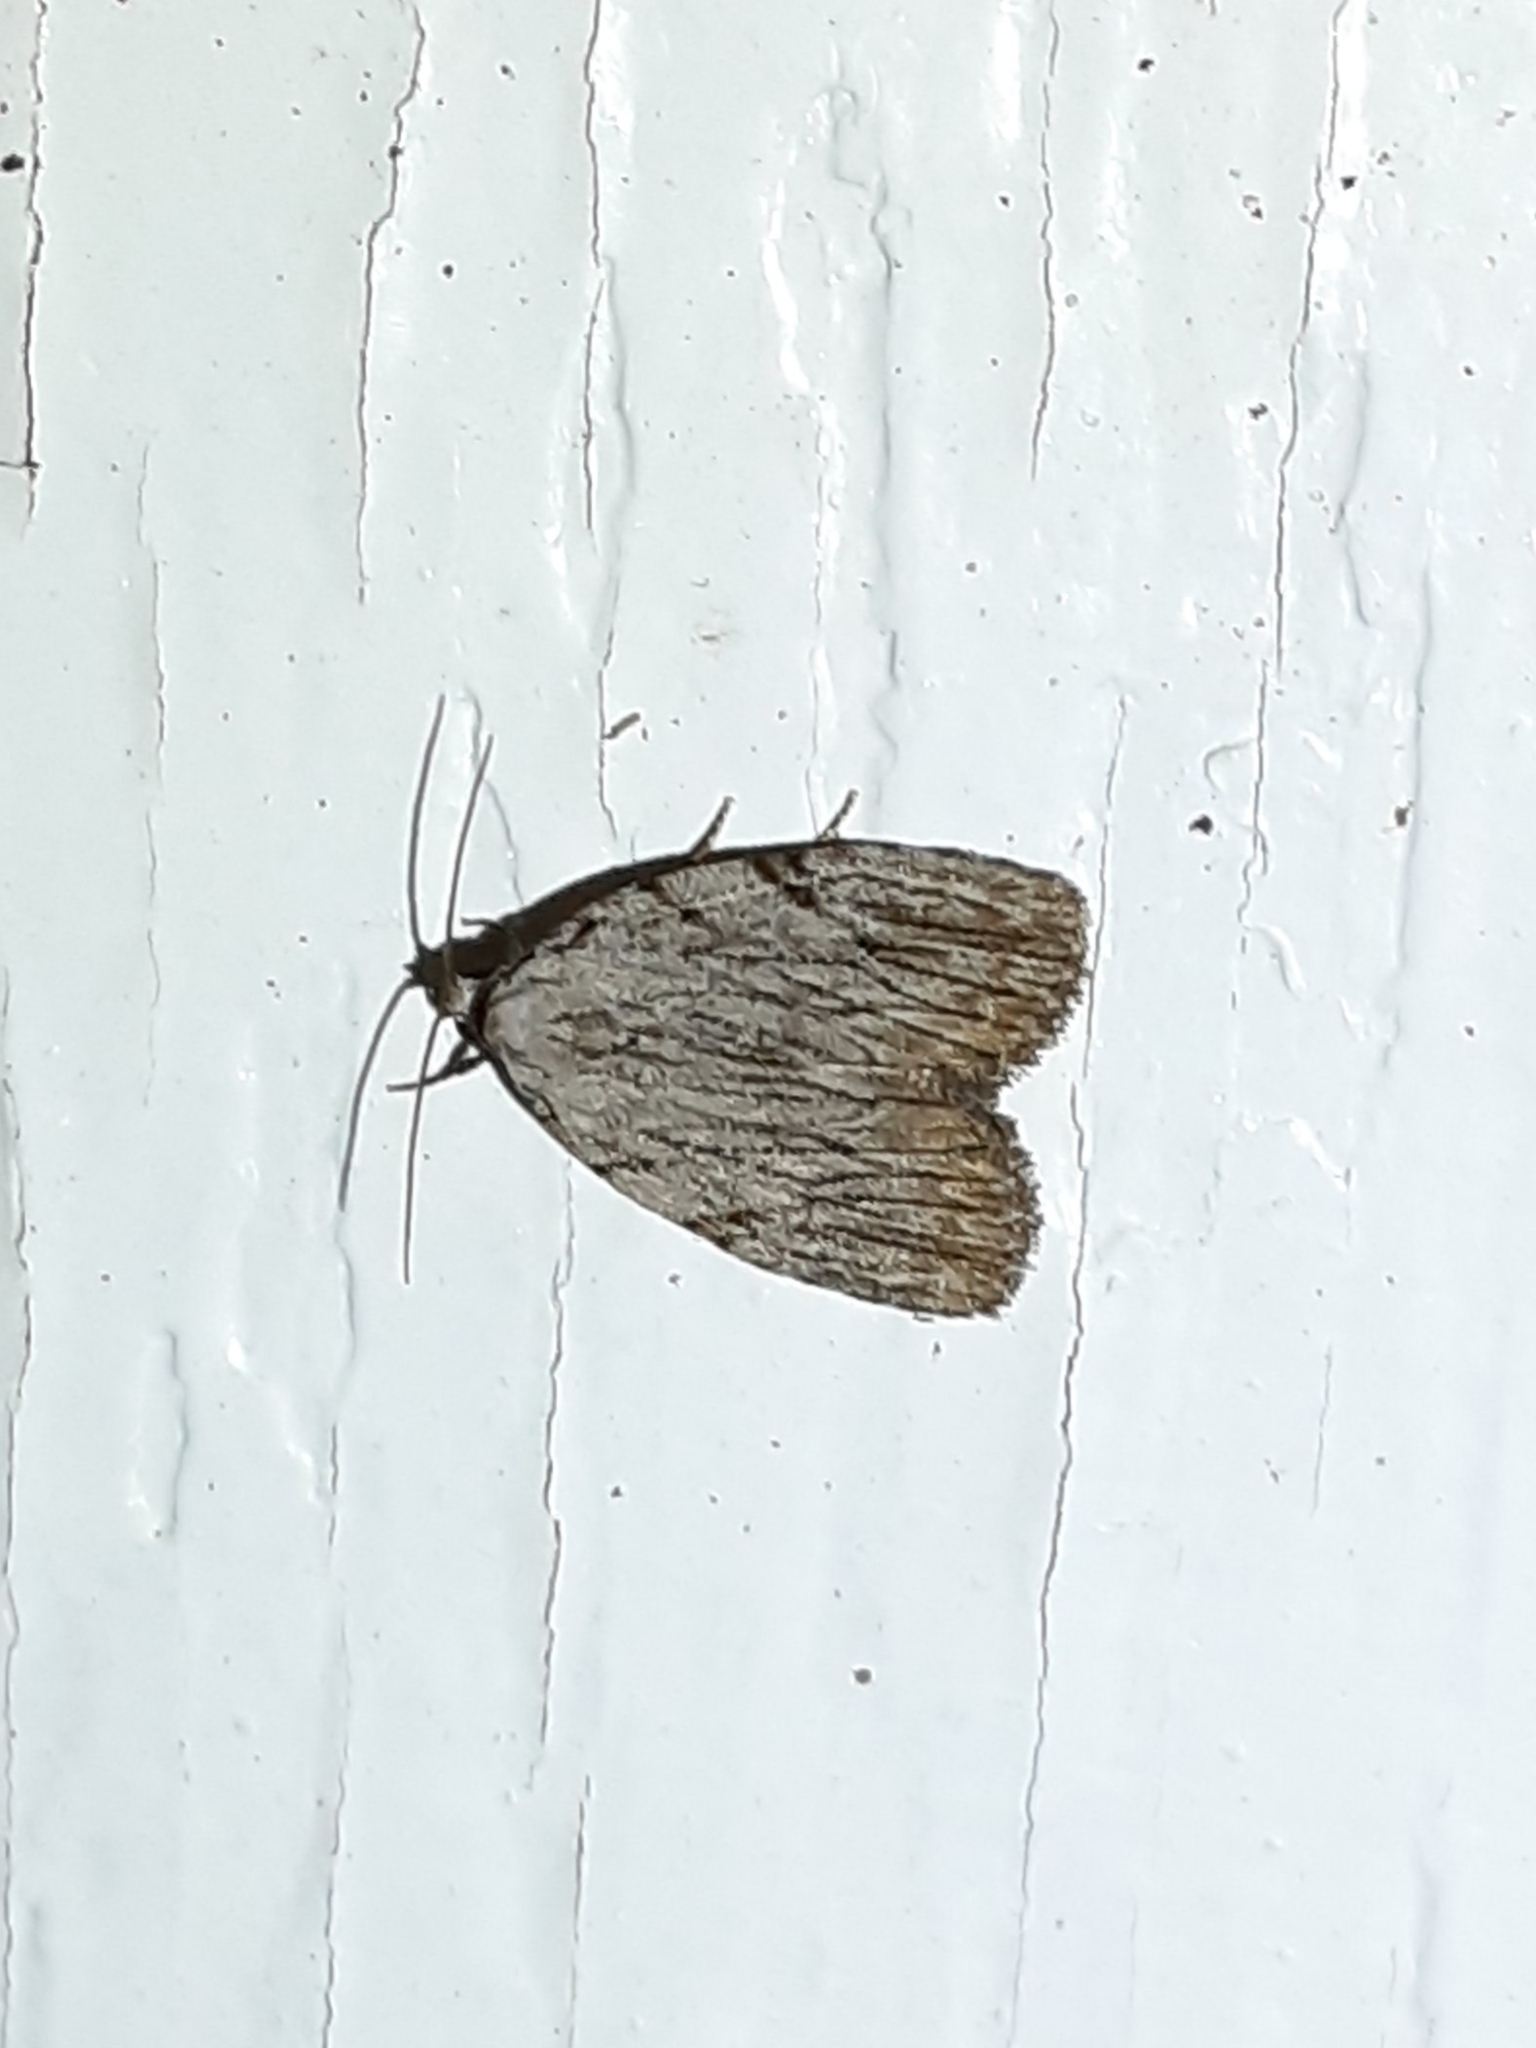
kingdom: Animalia
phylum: Arthropoda
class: Insecta
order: Lepidoptera
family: Noctuidae
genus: Balsa
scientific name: Balsa tristrigella
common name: Three-lined balsa moth
